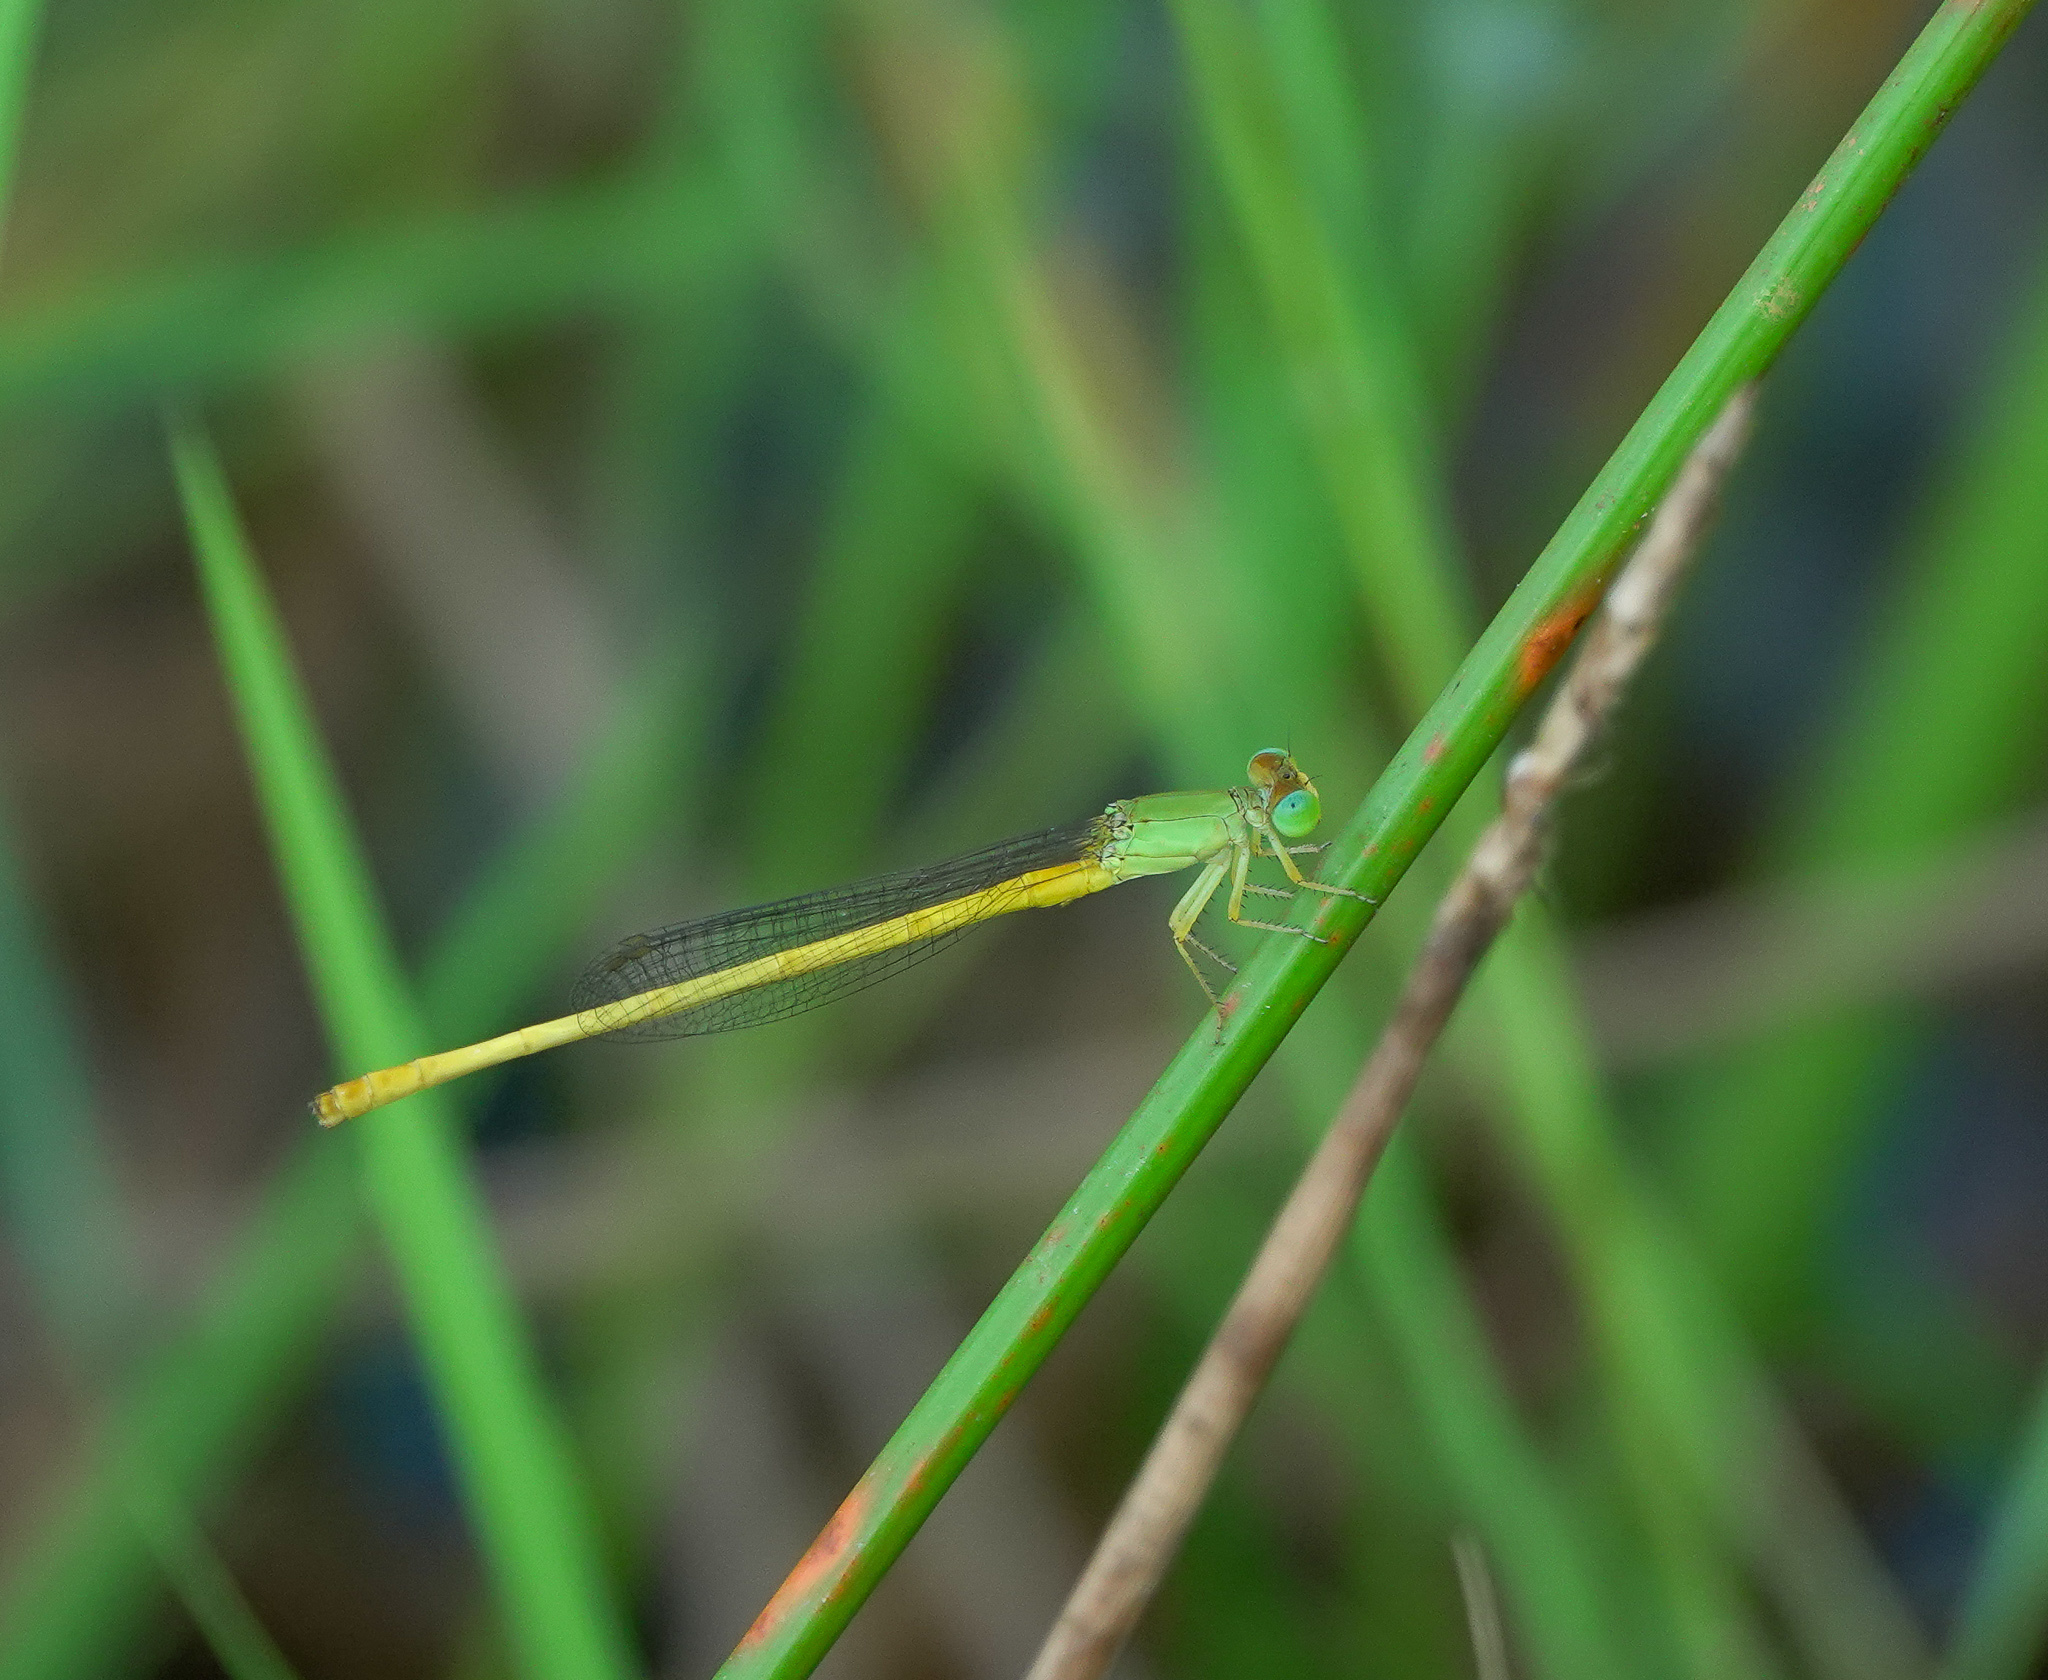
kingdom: Animalia
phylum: Arthropoda
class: Insecta
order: Odonata
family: Coenagrionidae
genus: Ceriagrion
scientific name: Ceriagrion coromandelianum
